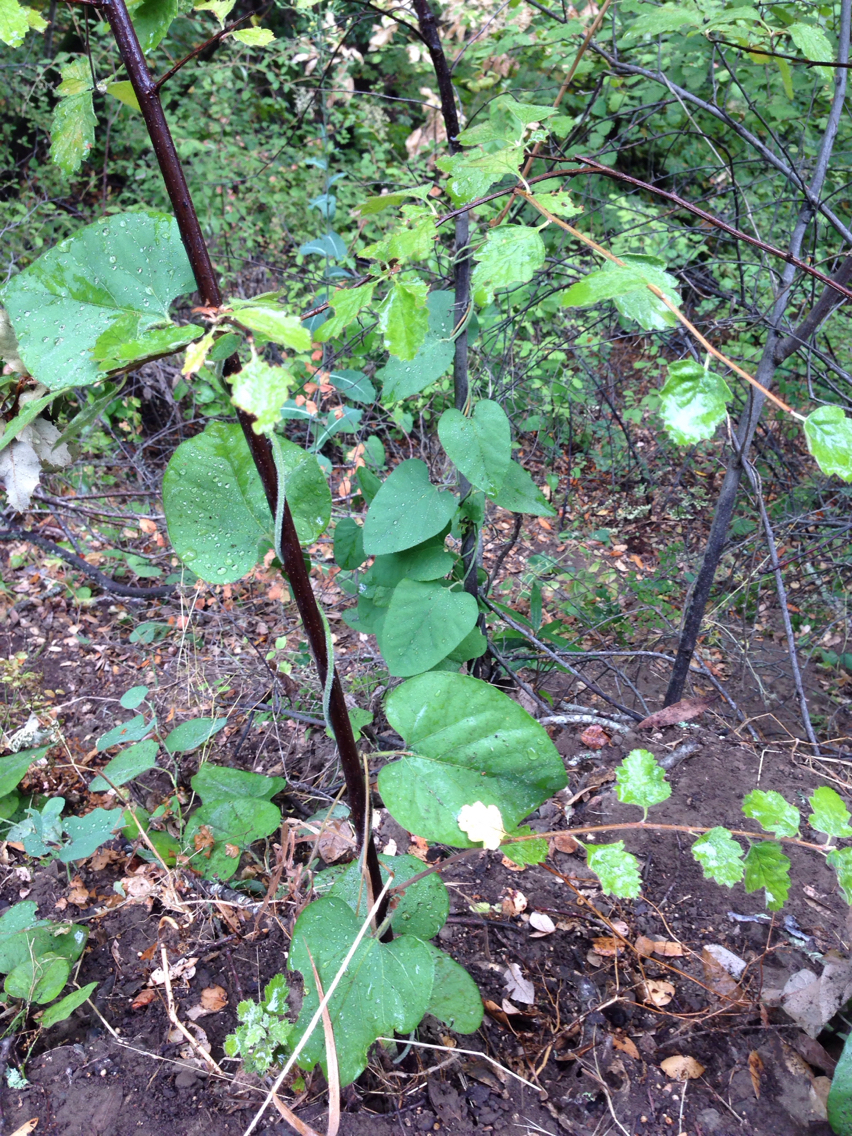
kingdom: Plantae
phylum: Tracheophyta
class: Magnoliopsida
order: Piperales
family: Aristolochiaceae
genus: Isotrema
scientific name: Isotrema californicum
